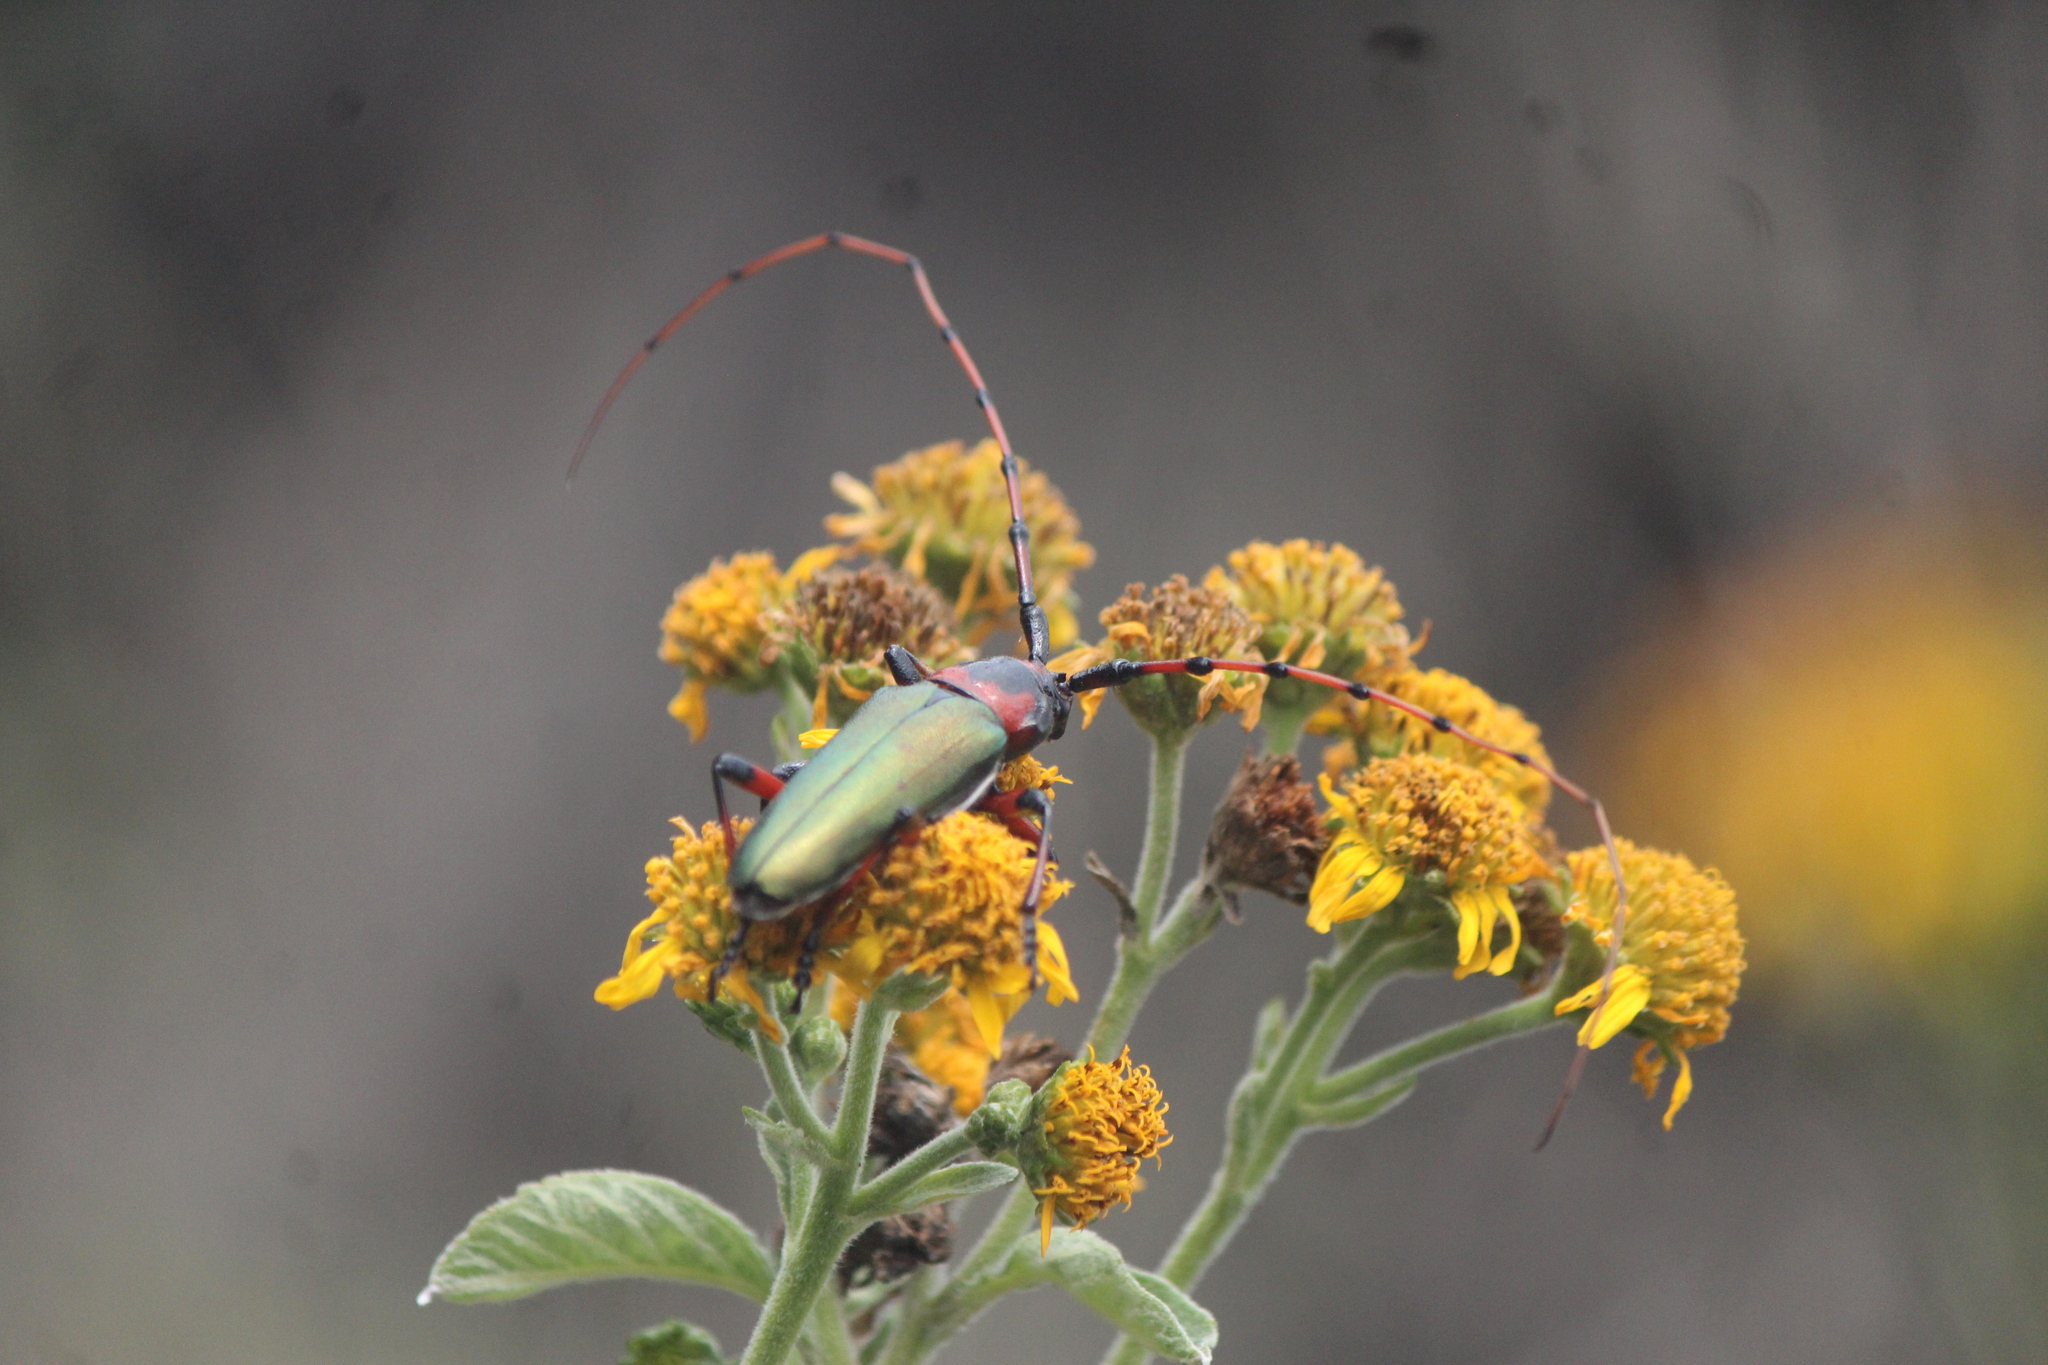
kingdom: Animalia
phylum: Arthropoda
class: Insecta
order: Coleoptera
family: Cerambycidae
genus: Stenaspis
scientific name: Stenaspis verticalis
